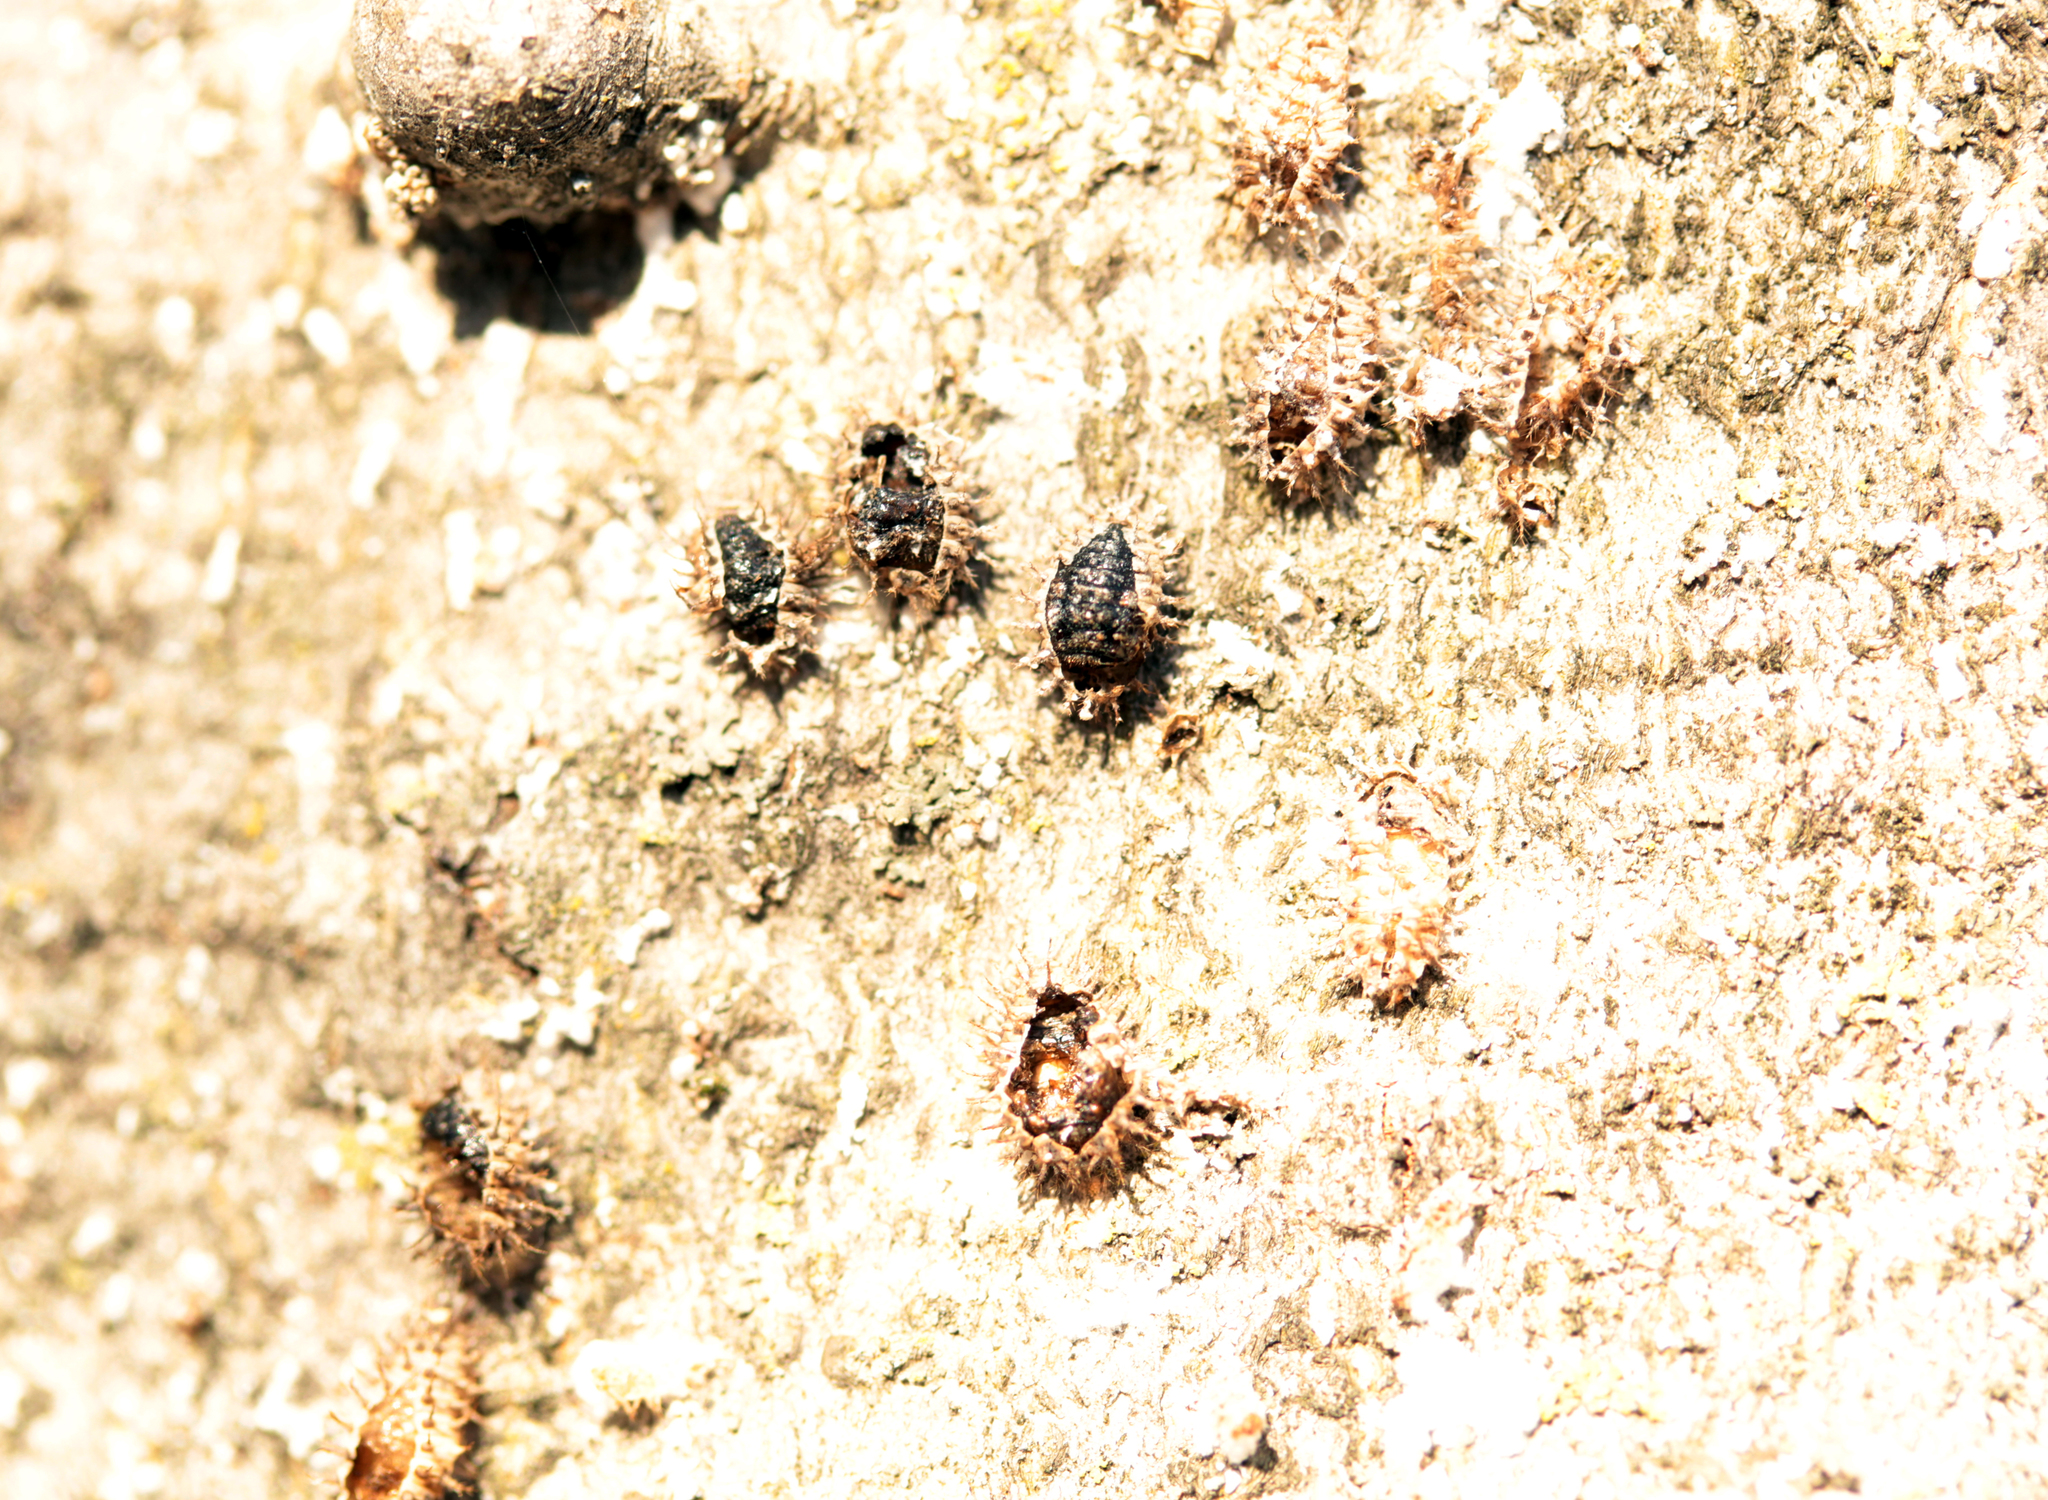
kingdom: Animalia
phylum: Arthropoda
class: Insecta
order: Coleoptera
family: Coccinellidae
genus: Chilocorus
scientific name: Chilocorus stigma
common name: Twicestabbed lady beetle
